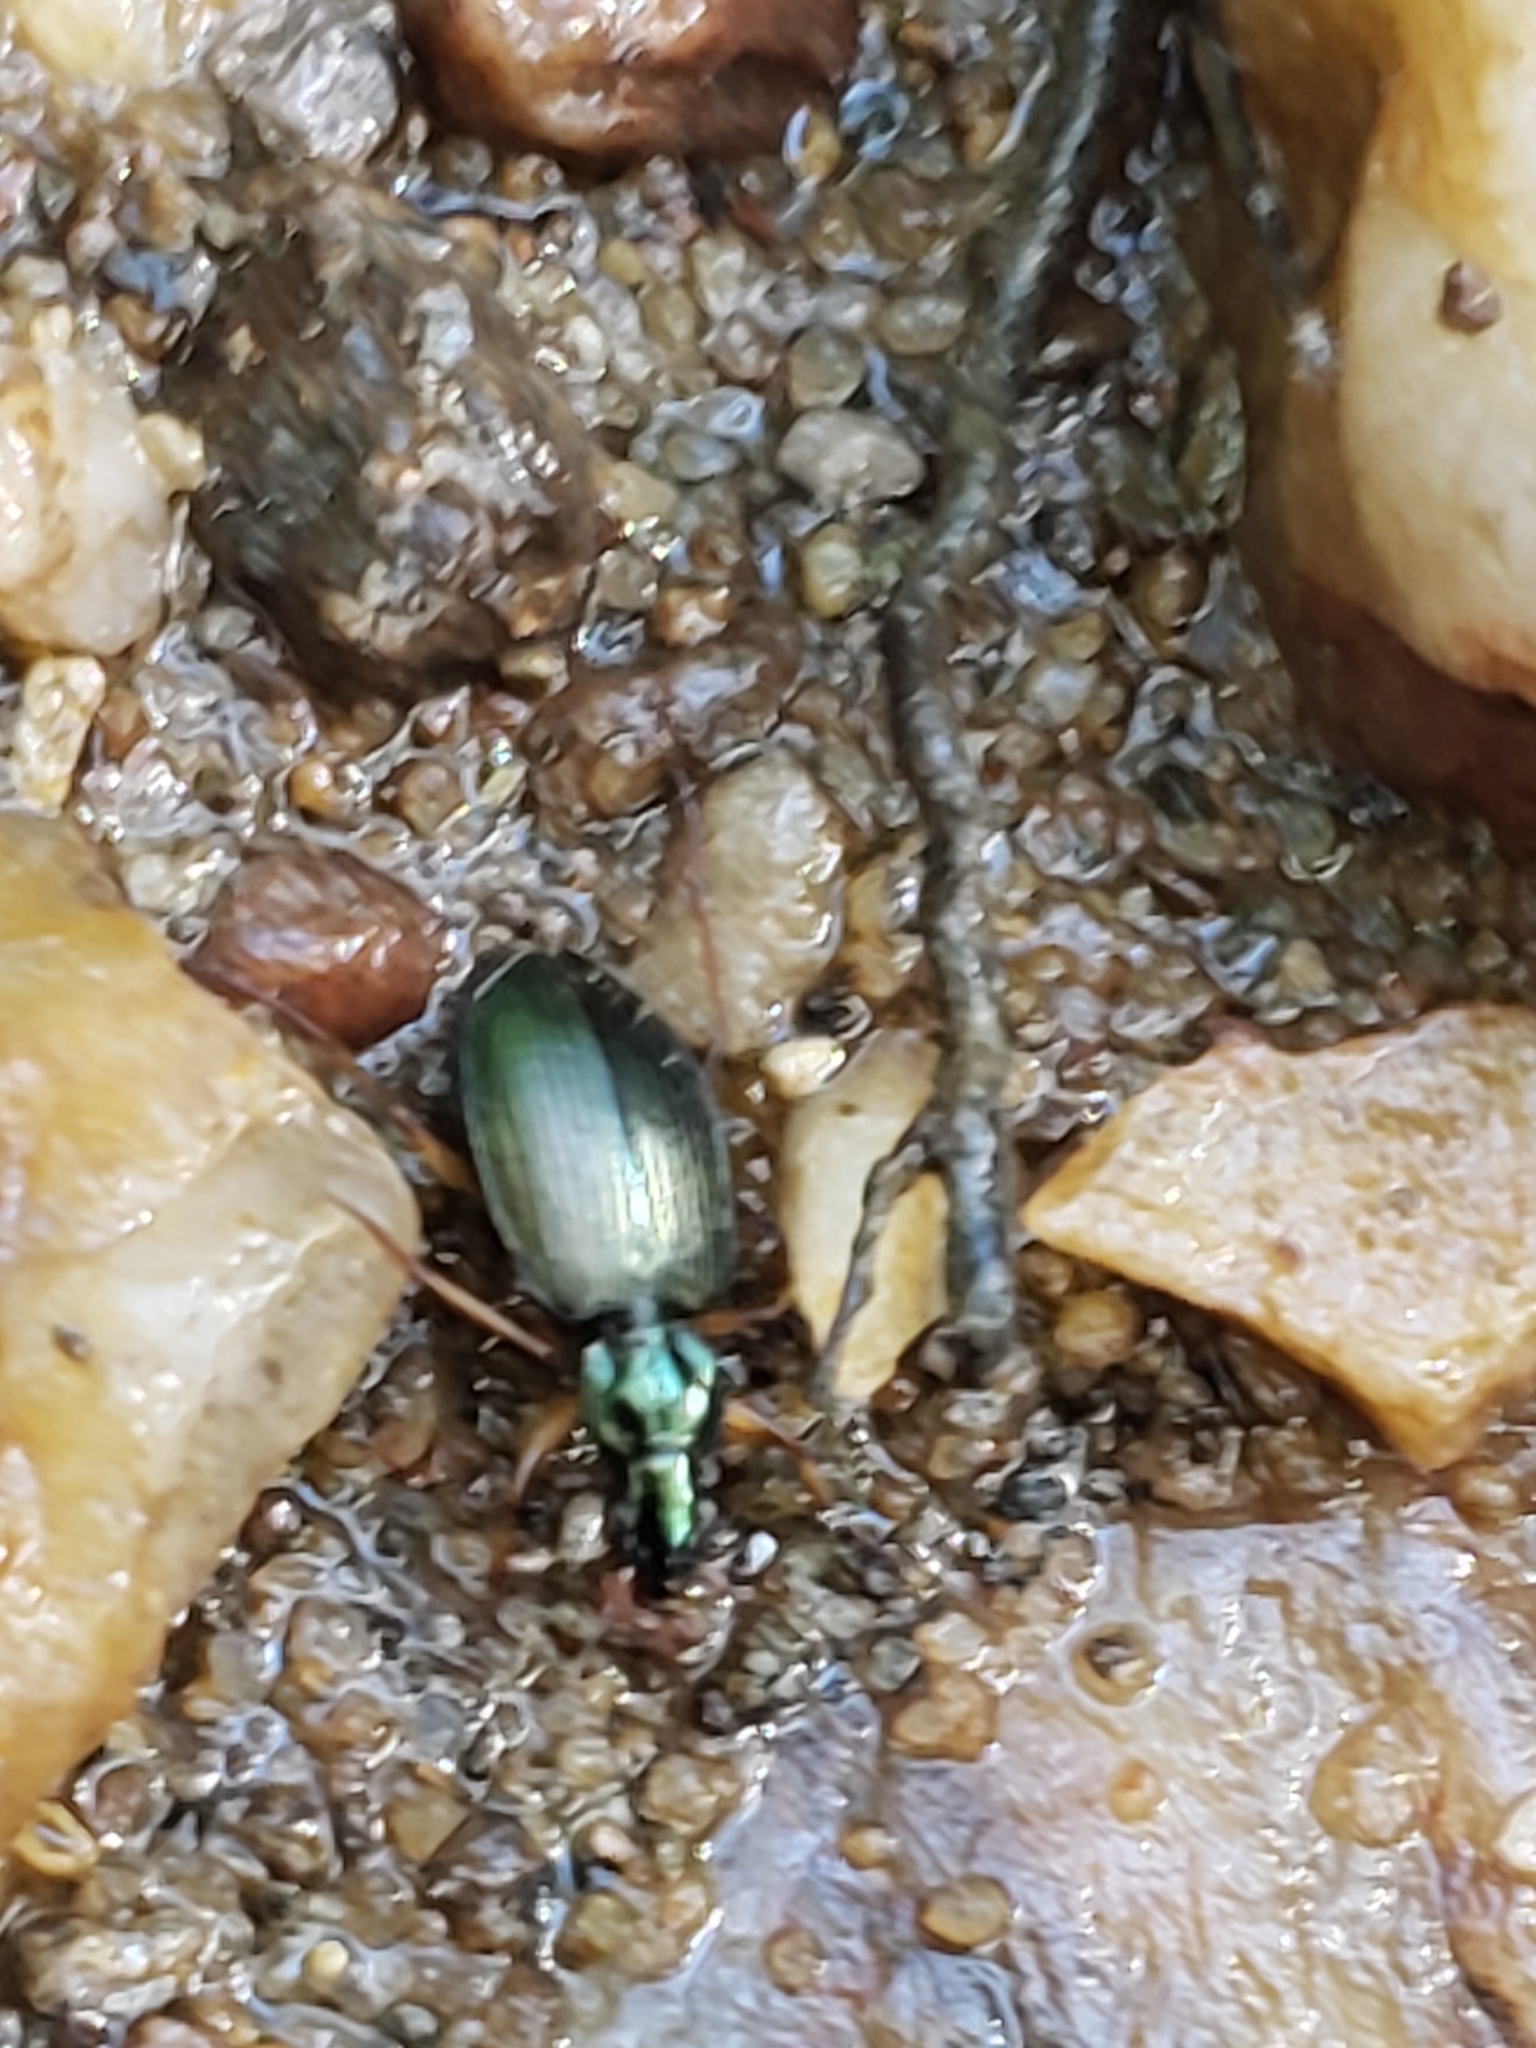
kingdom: Animalia
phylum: Arthropoda
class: Insecta
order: Coleoptera
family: Carabidae
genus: Agonum
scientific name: Agonum extensicolle
